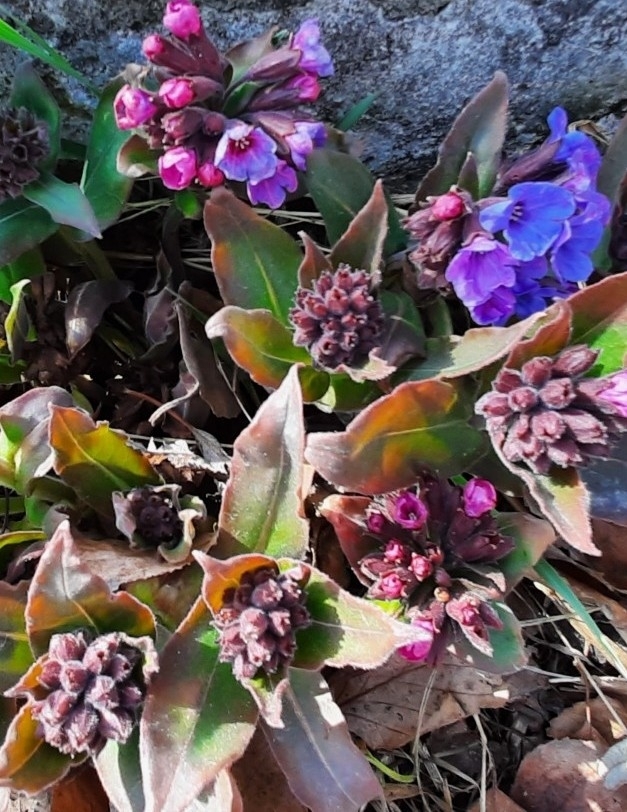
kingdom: Plantae
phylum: Tracheophyta
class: Magnoliopsida
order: Boraginales
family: Boraginaceae
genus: Pulmonaria
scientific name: Pulmonaria mollis
